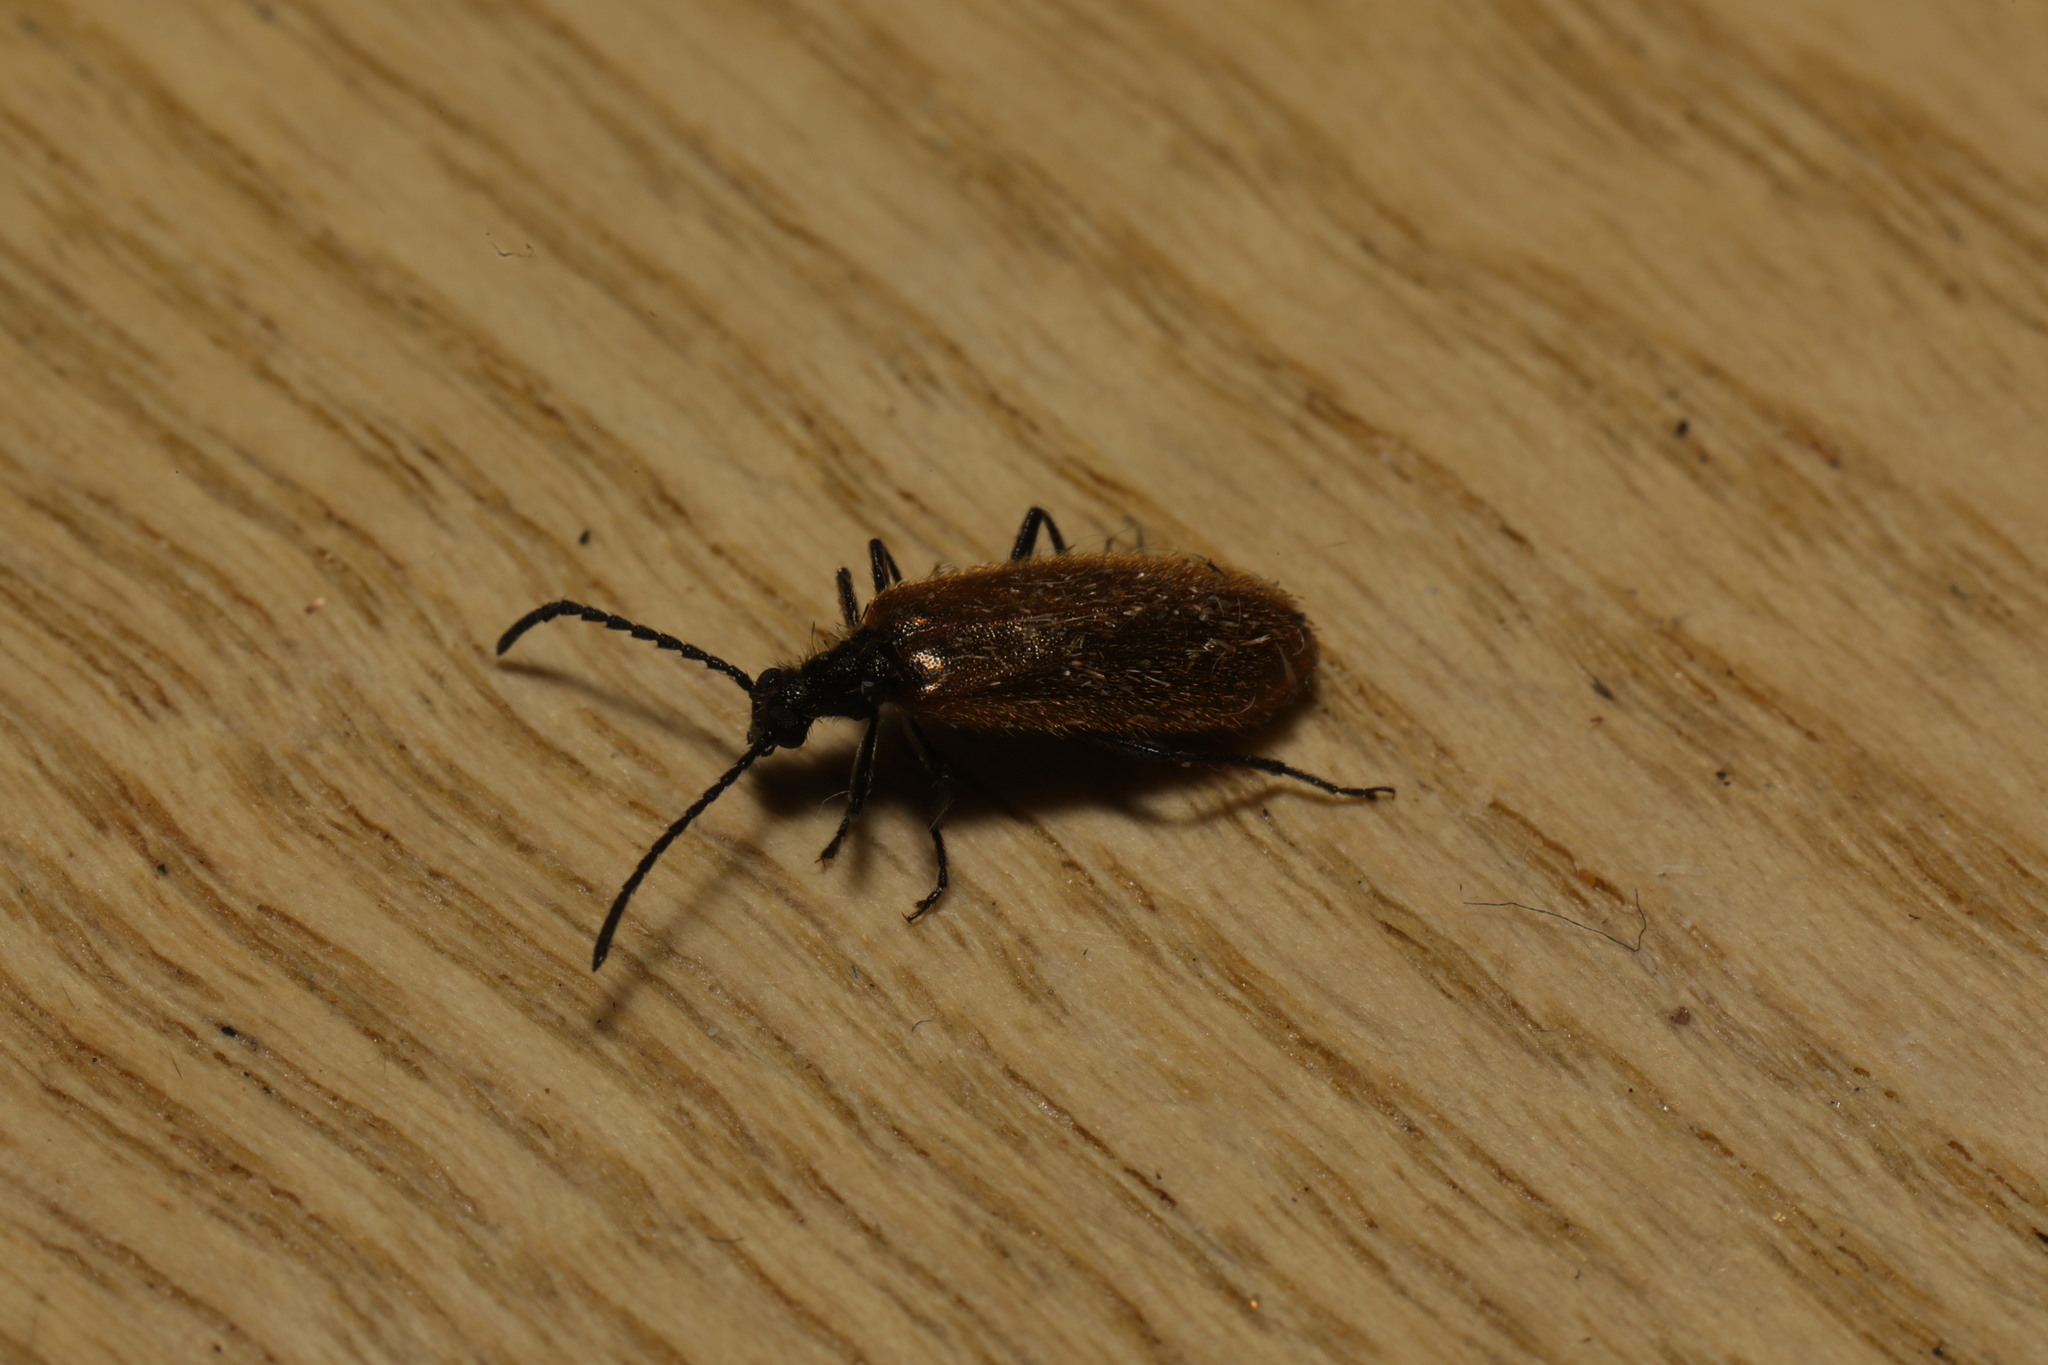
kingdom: Animalia
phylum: Arthropoda
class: Insecta
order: Coleoptera
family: Tenebrionidae
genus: Lagria
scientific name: Lagria hirta
